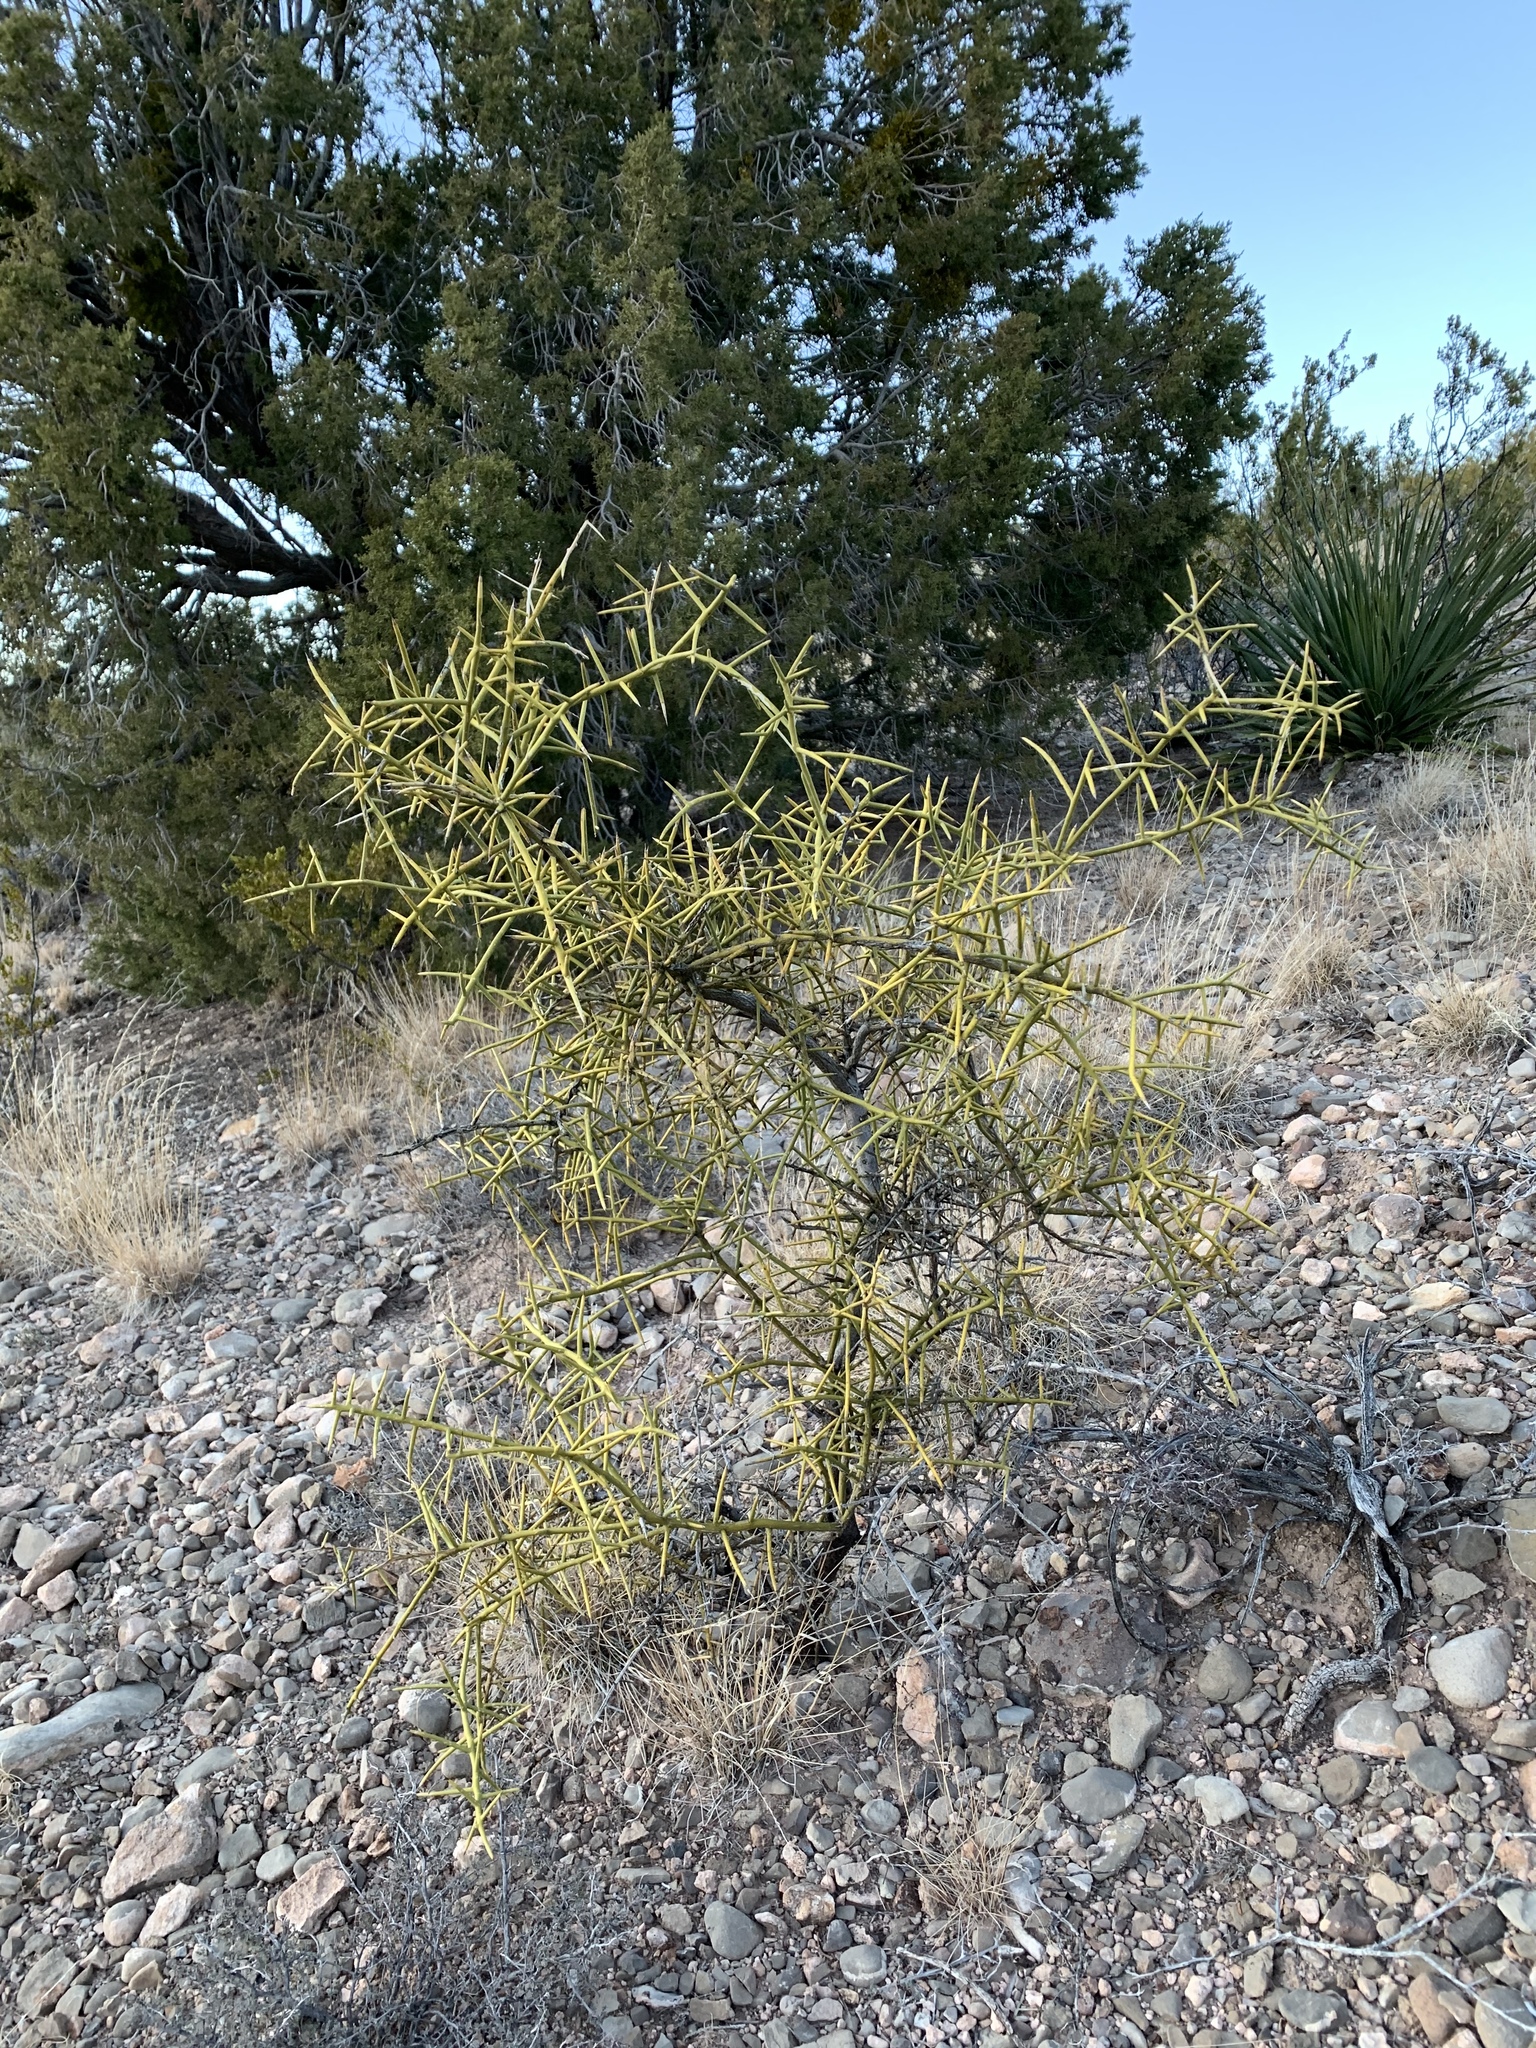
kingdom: Plantae
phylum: Tracheophyta
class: Magnoliopsida
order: Brassicales
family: Koeberliniaceae
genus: Koeberlinia
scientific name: Koeberlinia spinosa
